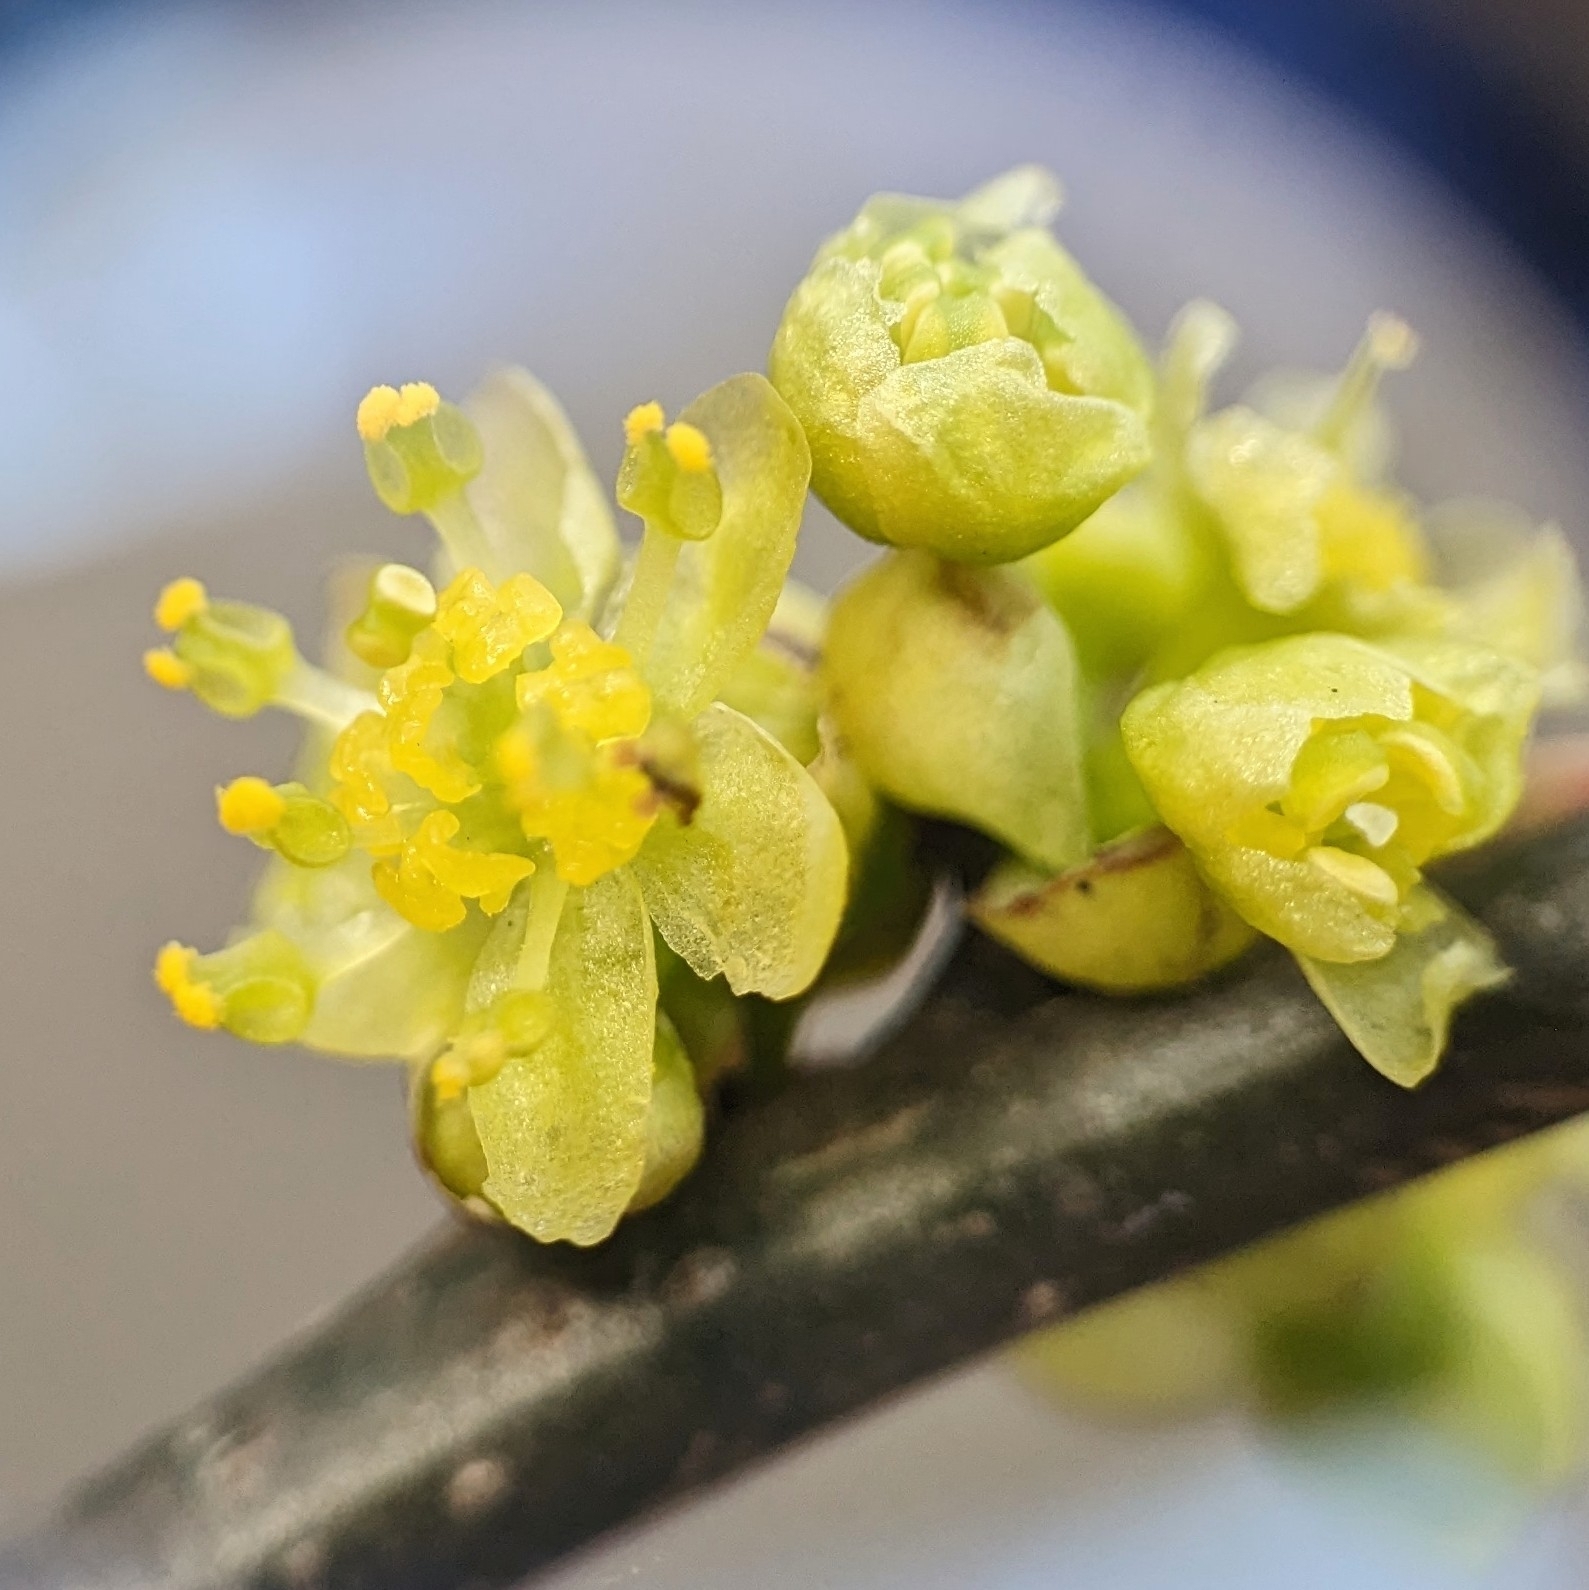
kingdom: Plantae
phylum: Tracheophyta
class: Magnoliopsida
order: Laurales
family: Lauraceae
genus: Lindera
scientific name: Lindera benzoin
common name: Spicebush
